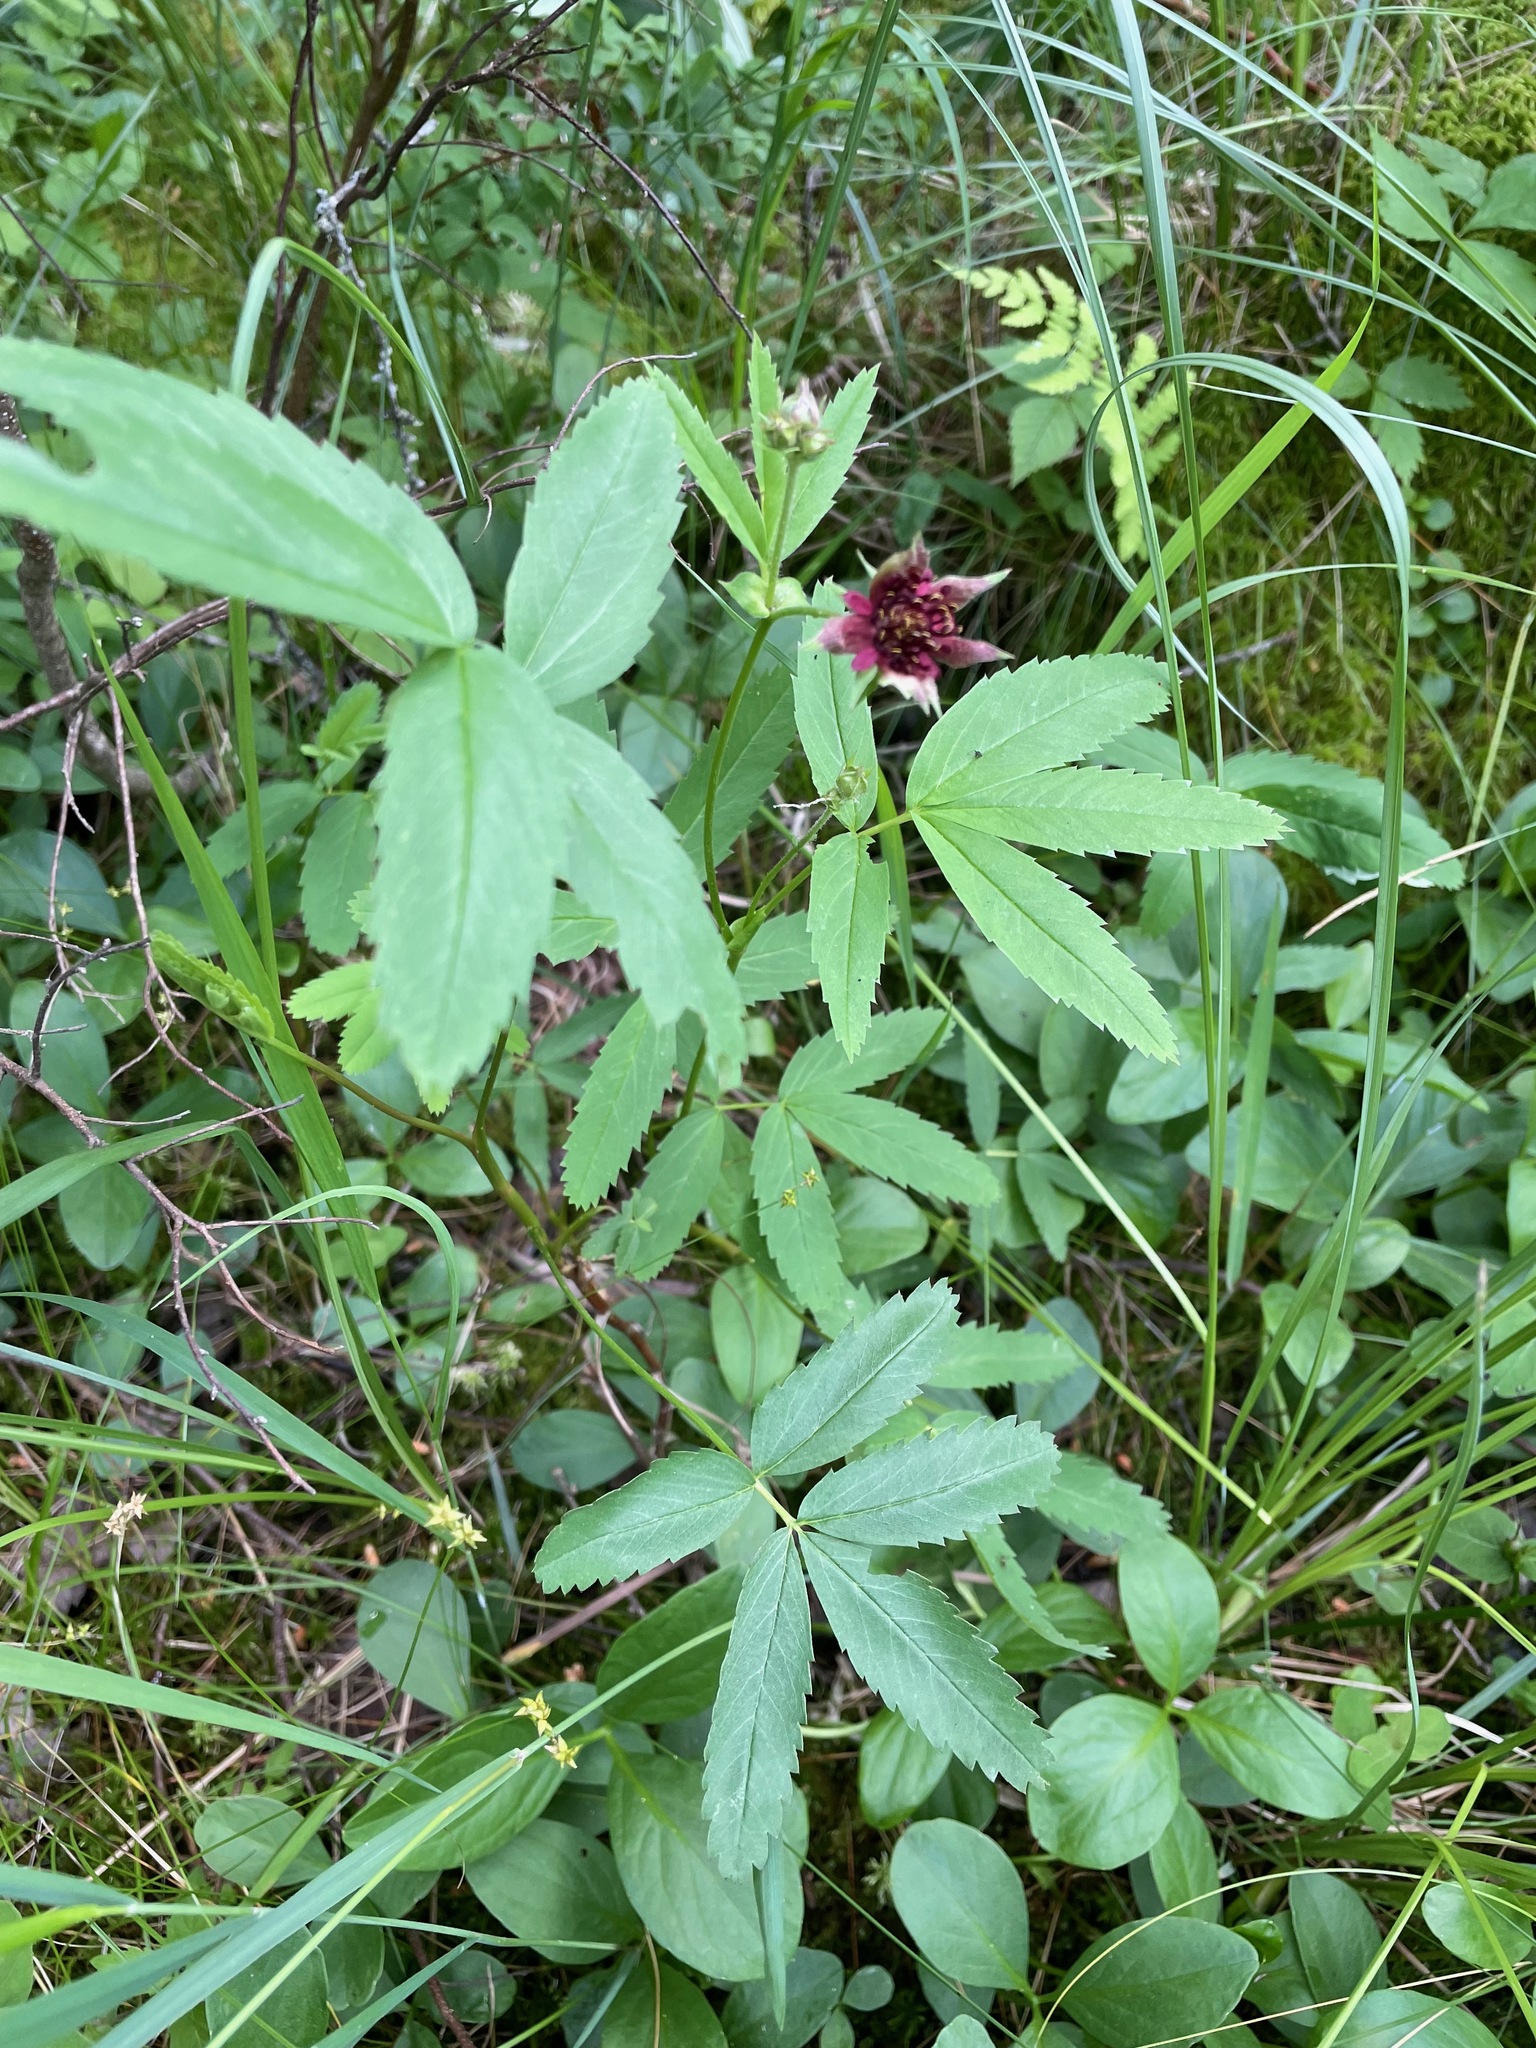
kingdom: Plantae
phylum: Tracheophyta
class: Magnoliopsida
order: Rosales
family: Rosaceae
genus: Comarum
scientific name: Comarum palustre
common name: Marsh cinquefoil
